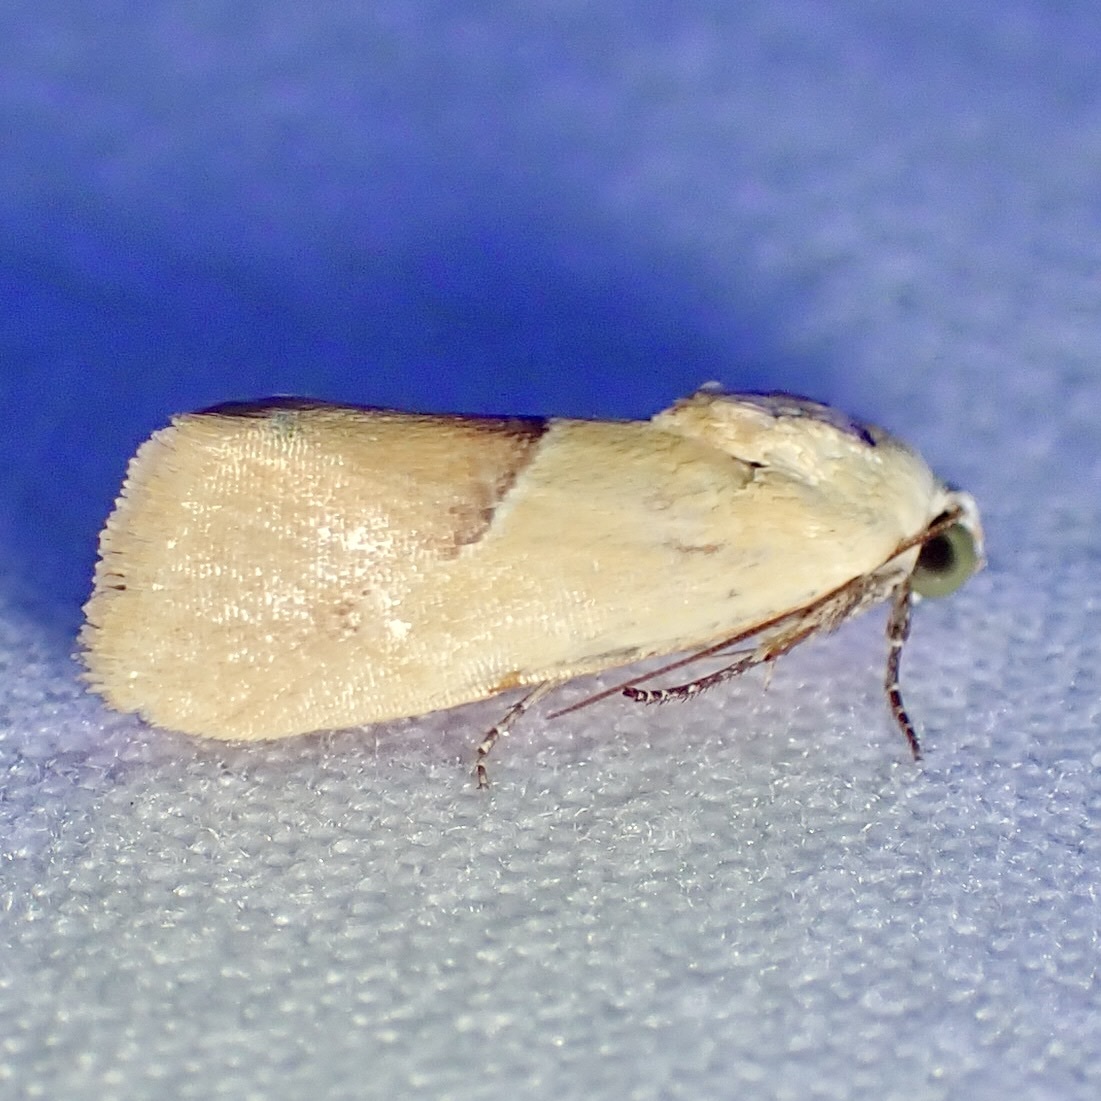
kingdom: Animalia
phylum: Arthropoda
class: Insecta
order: Lepidoptera
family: Noctuidae
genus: Ponometia
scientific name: Ponometia venustula
